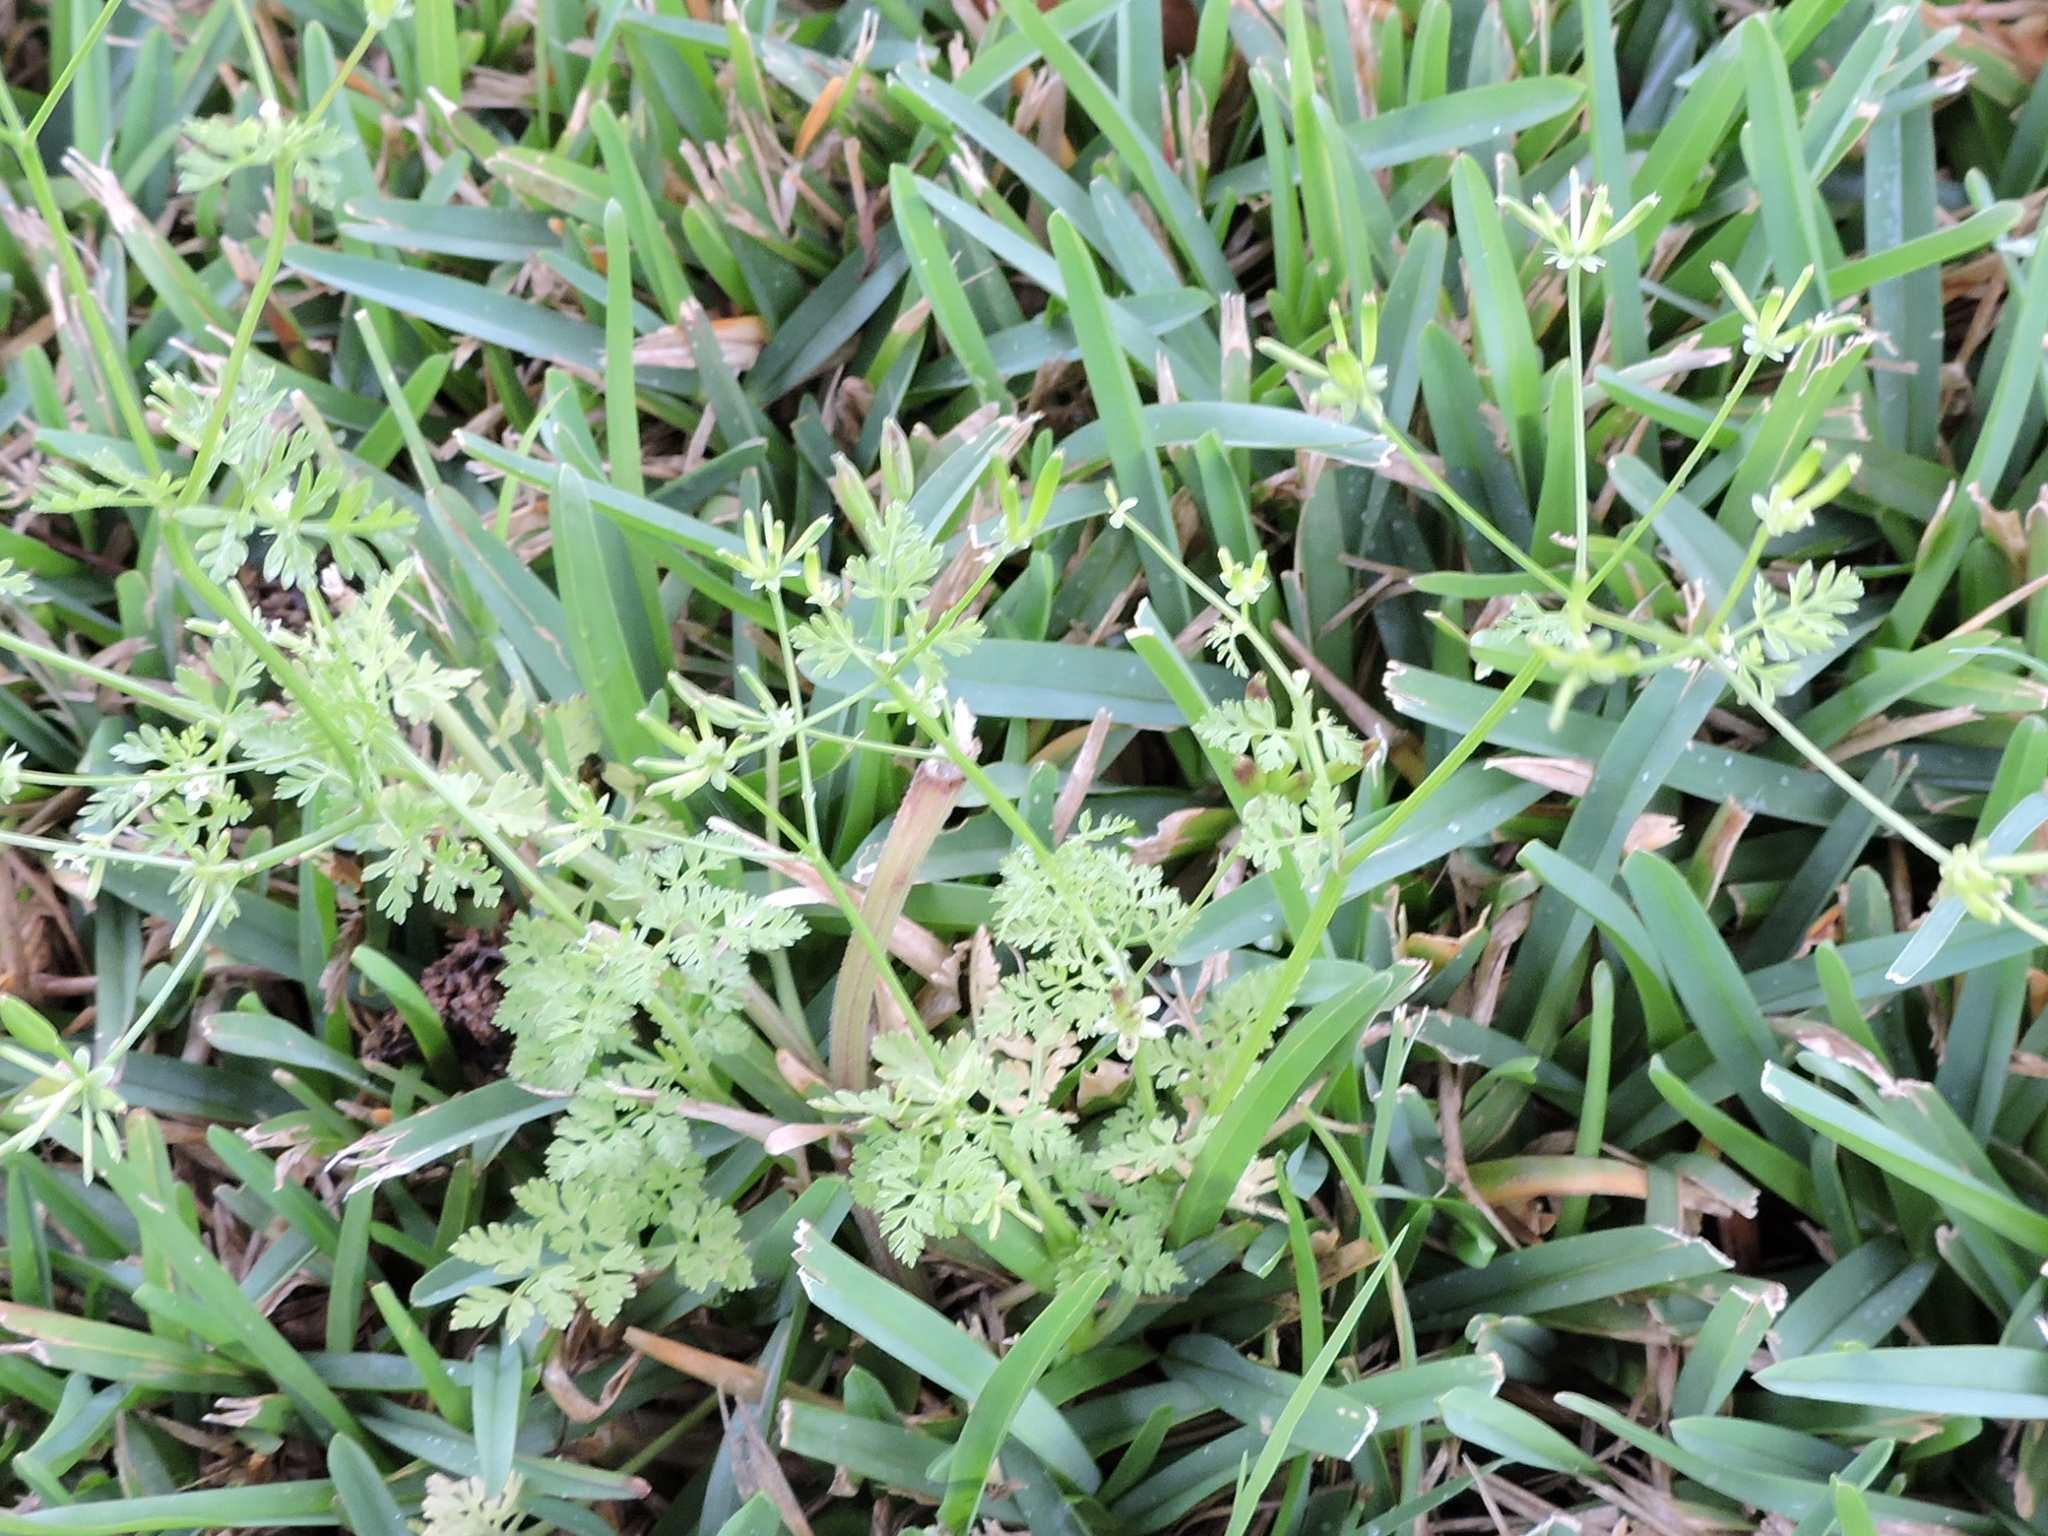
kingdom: Plantae
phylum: Tracheophyta
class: Magnoliopsida
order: Apiales
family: Apiaceae
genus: Chaerophyllum
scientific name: Chaerophyllum tainturieri
